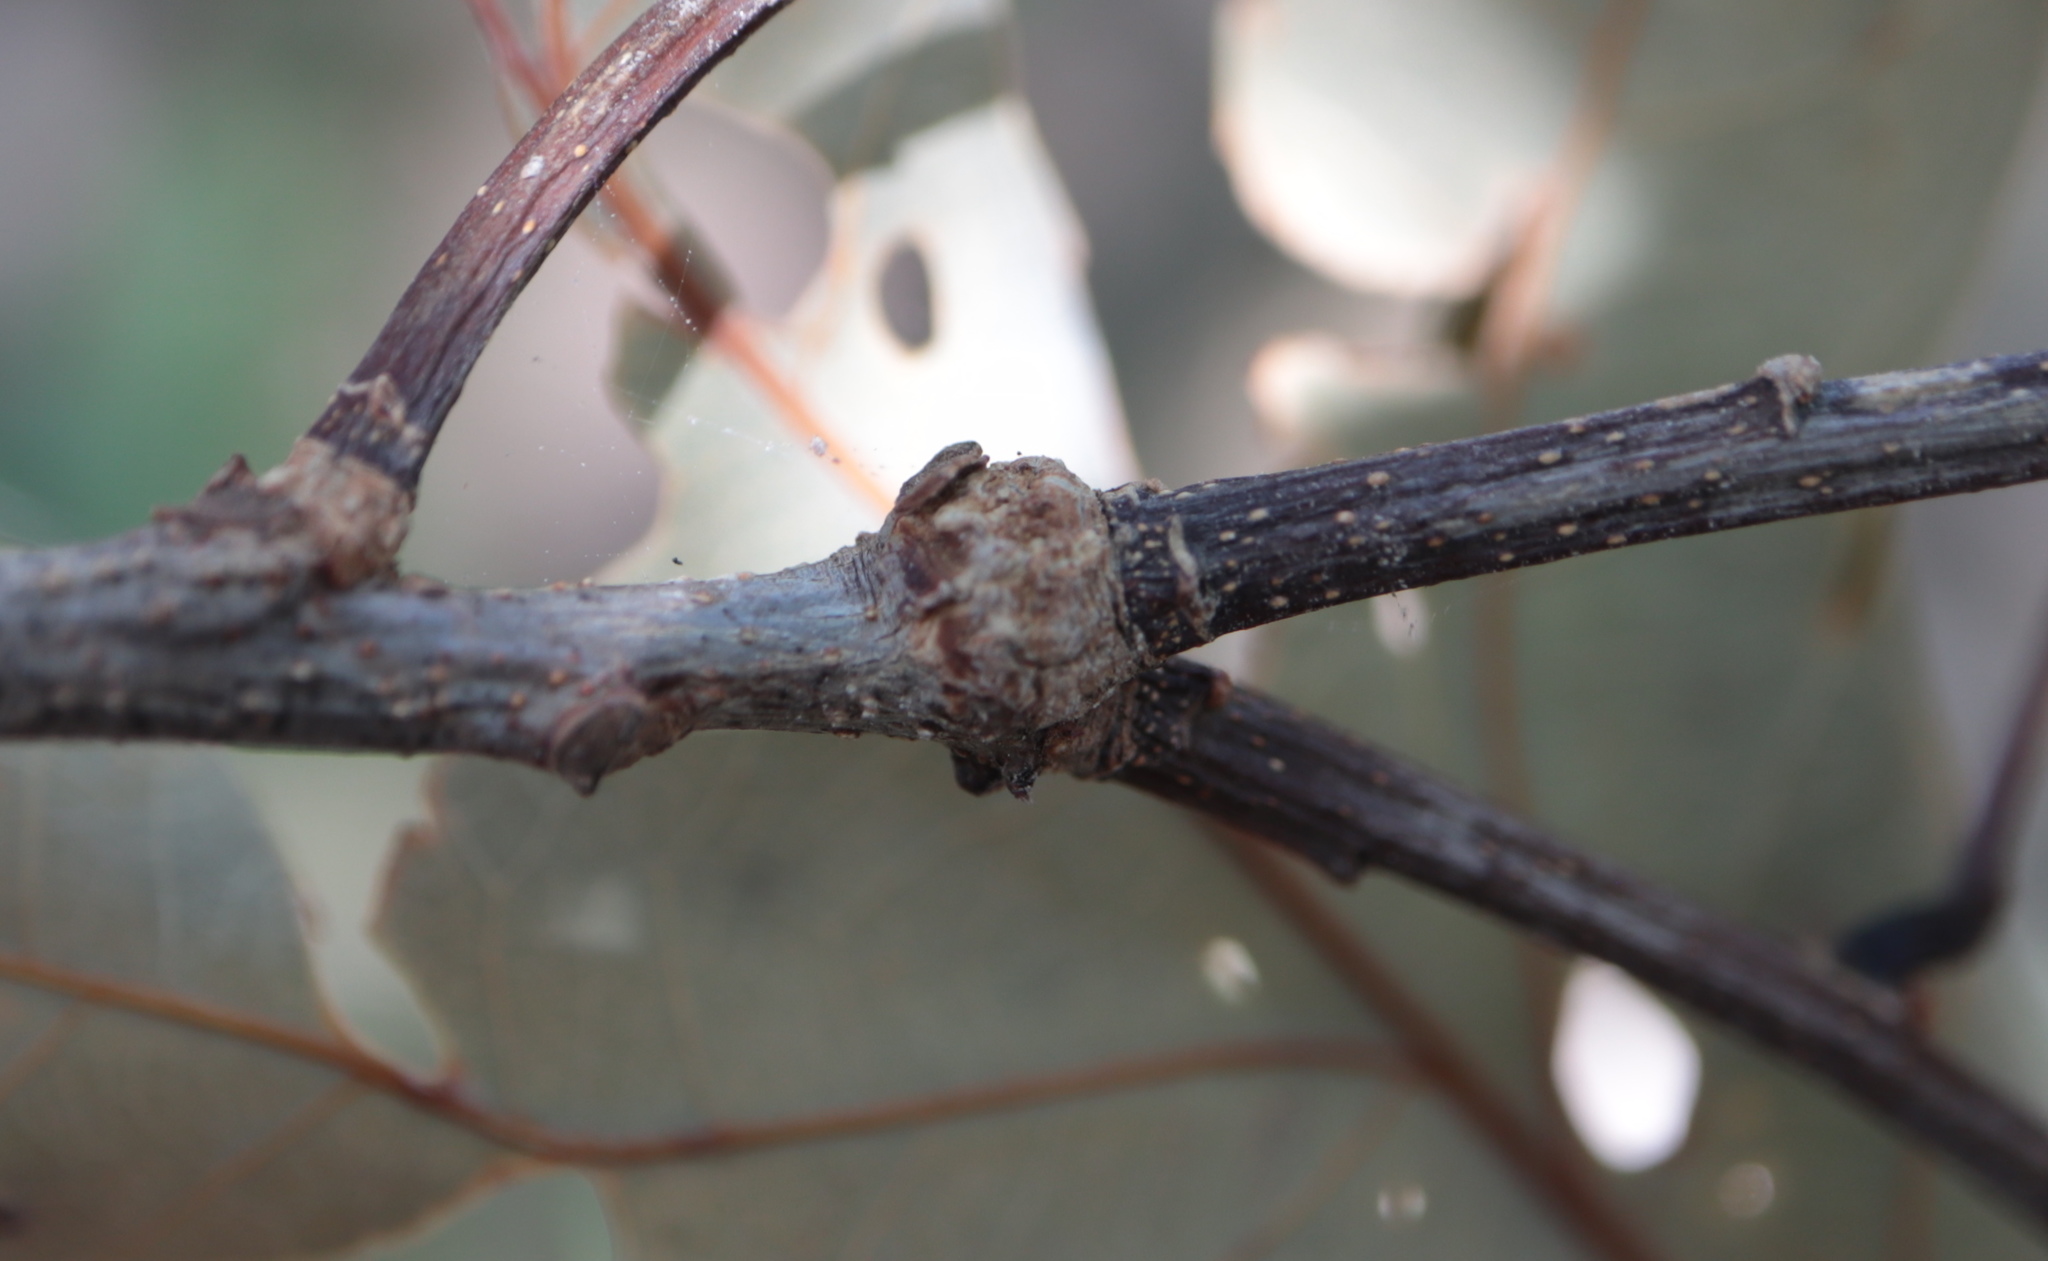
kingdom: Animalia
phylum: Arthropoda
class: Insecta
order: Hymenoptera
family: Cynipidae
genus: Loxaulus
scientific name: Loxaulus
